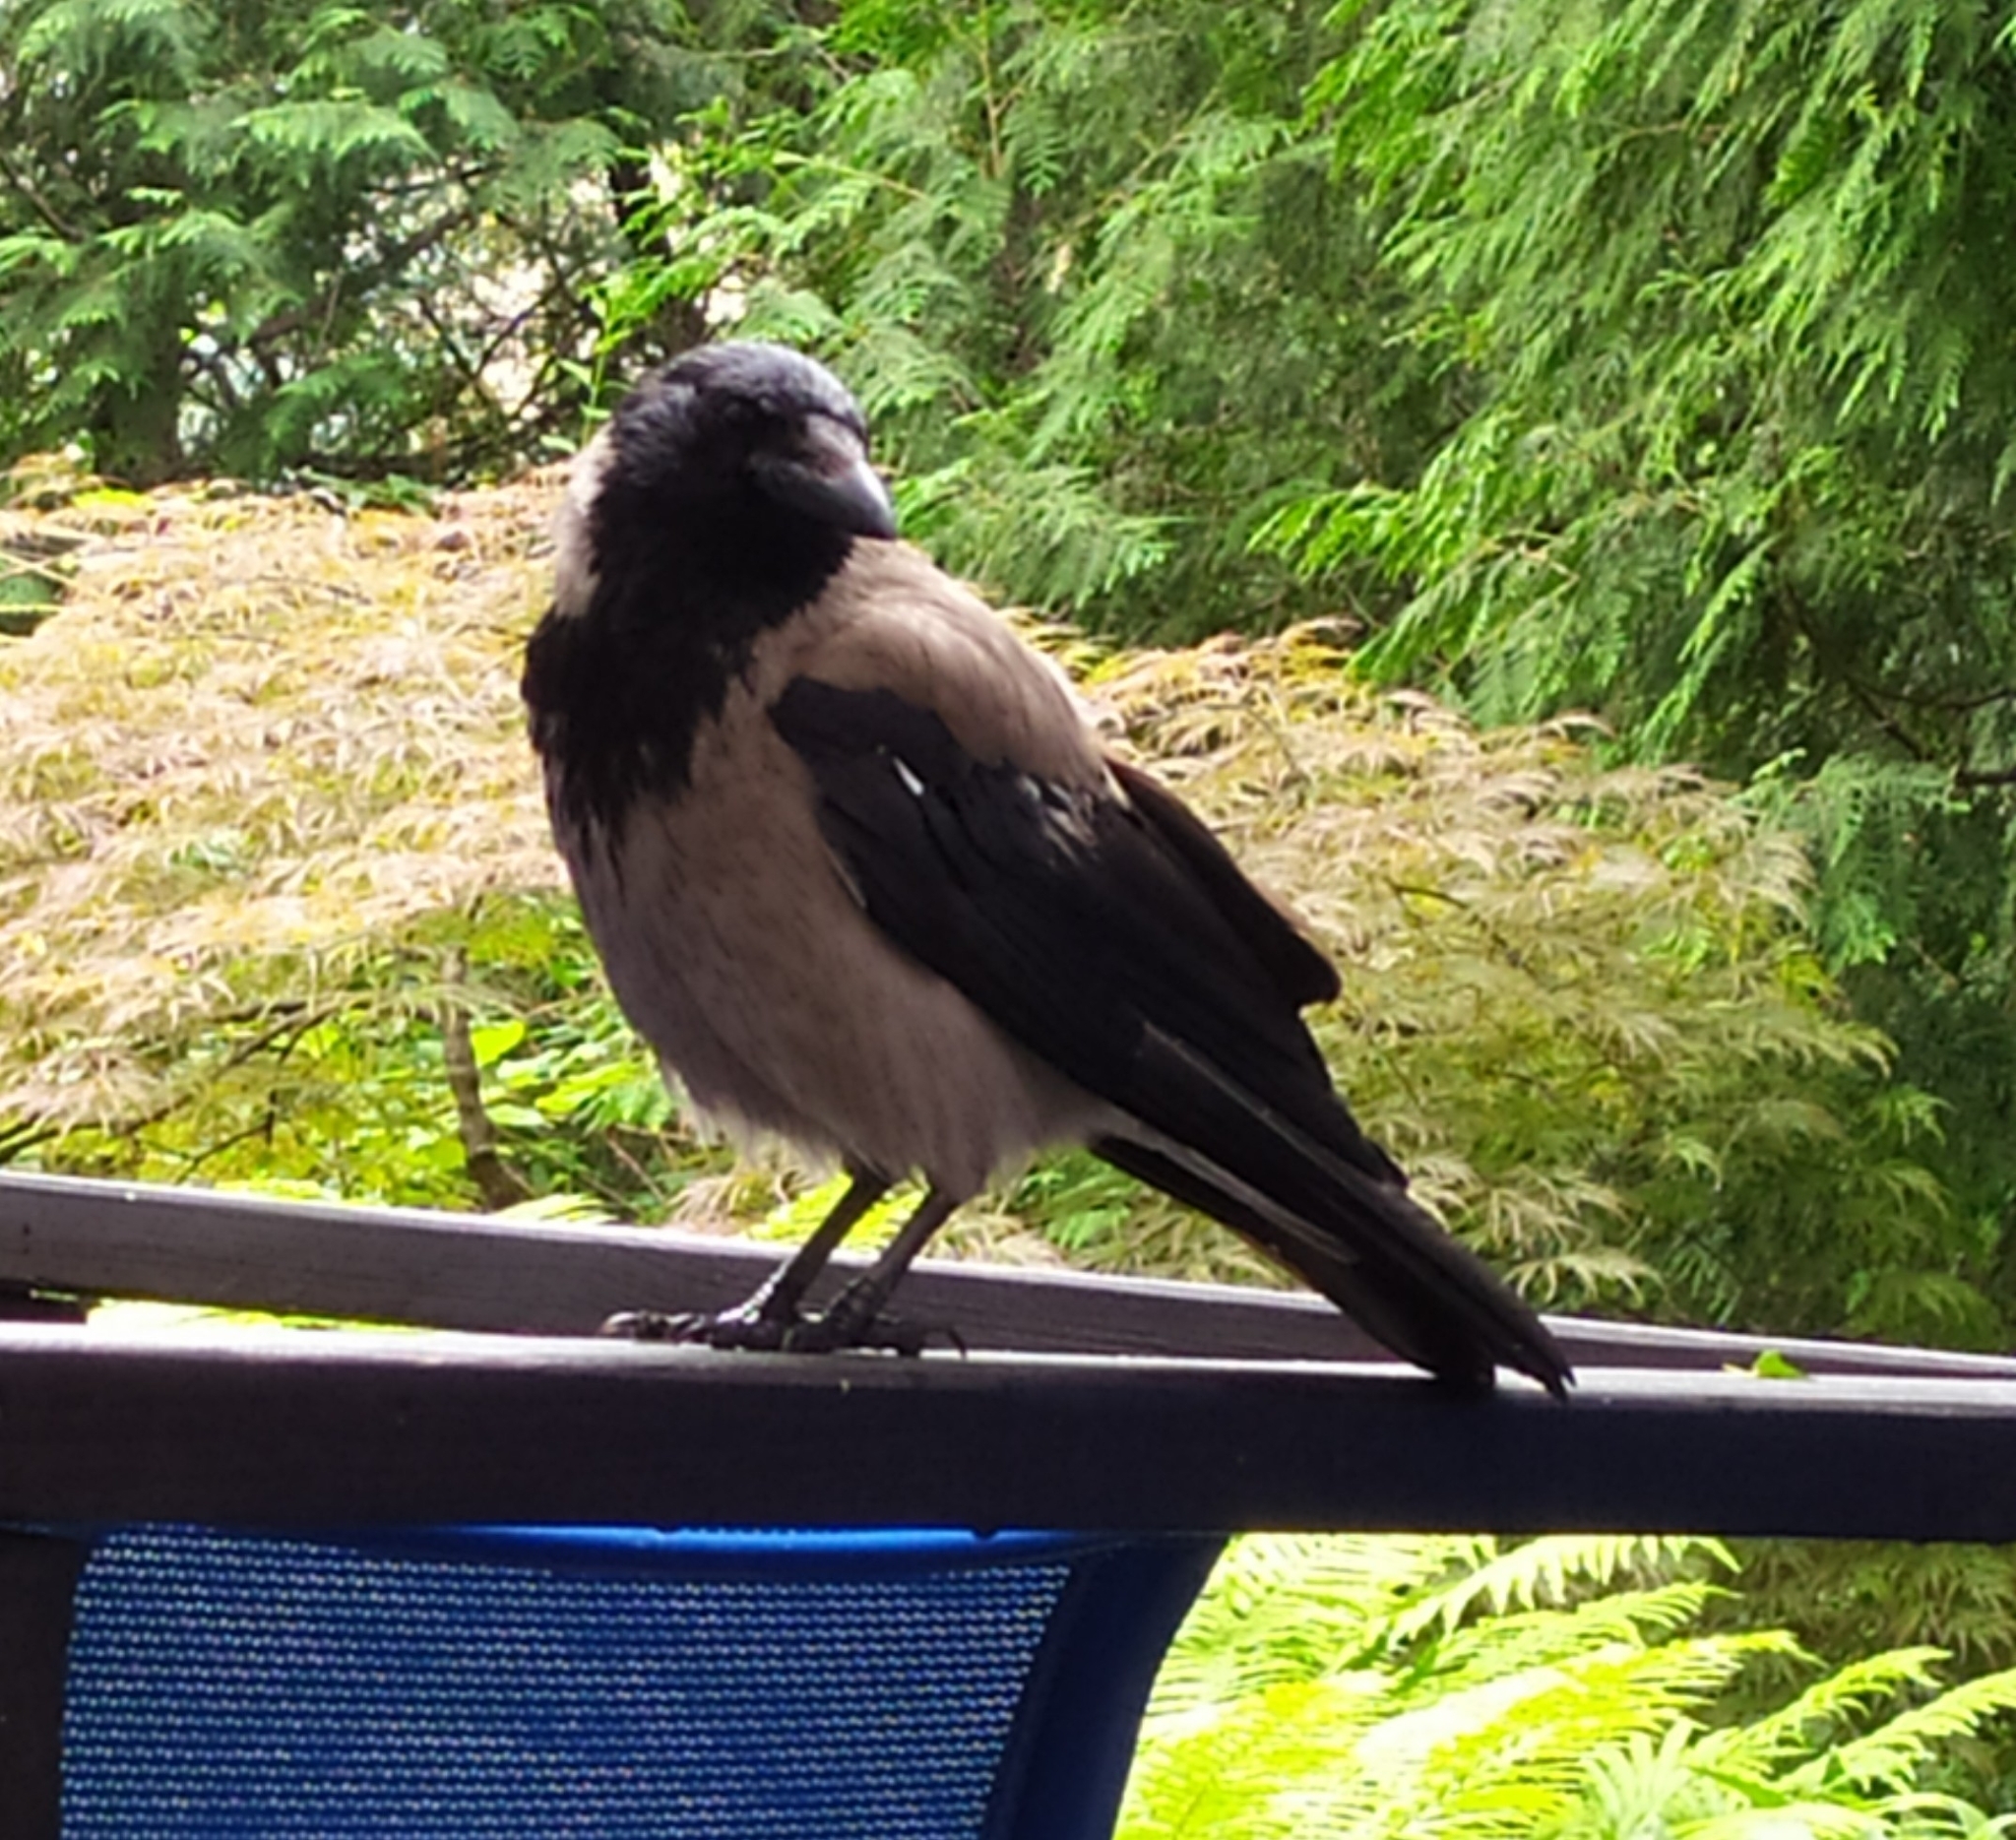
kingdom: Animalia
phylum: Chordata
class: Aves
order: Passeriformes
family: Corvidae
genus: Corvus
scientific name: Corvus cornix
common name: Hooded crow
